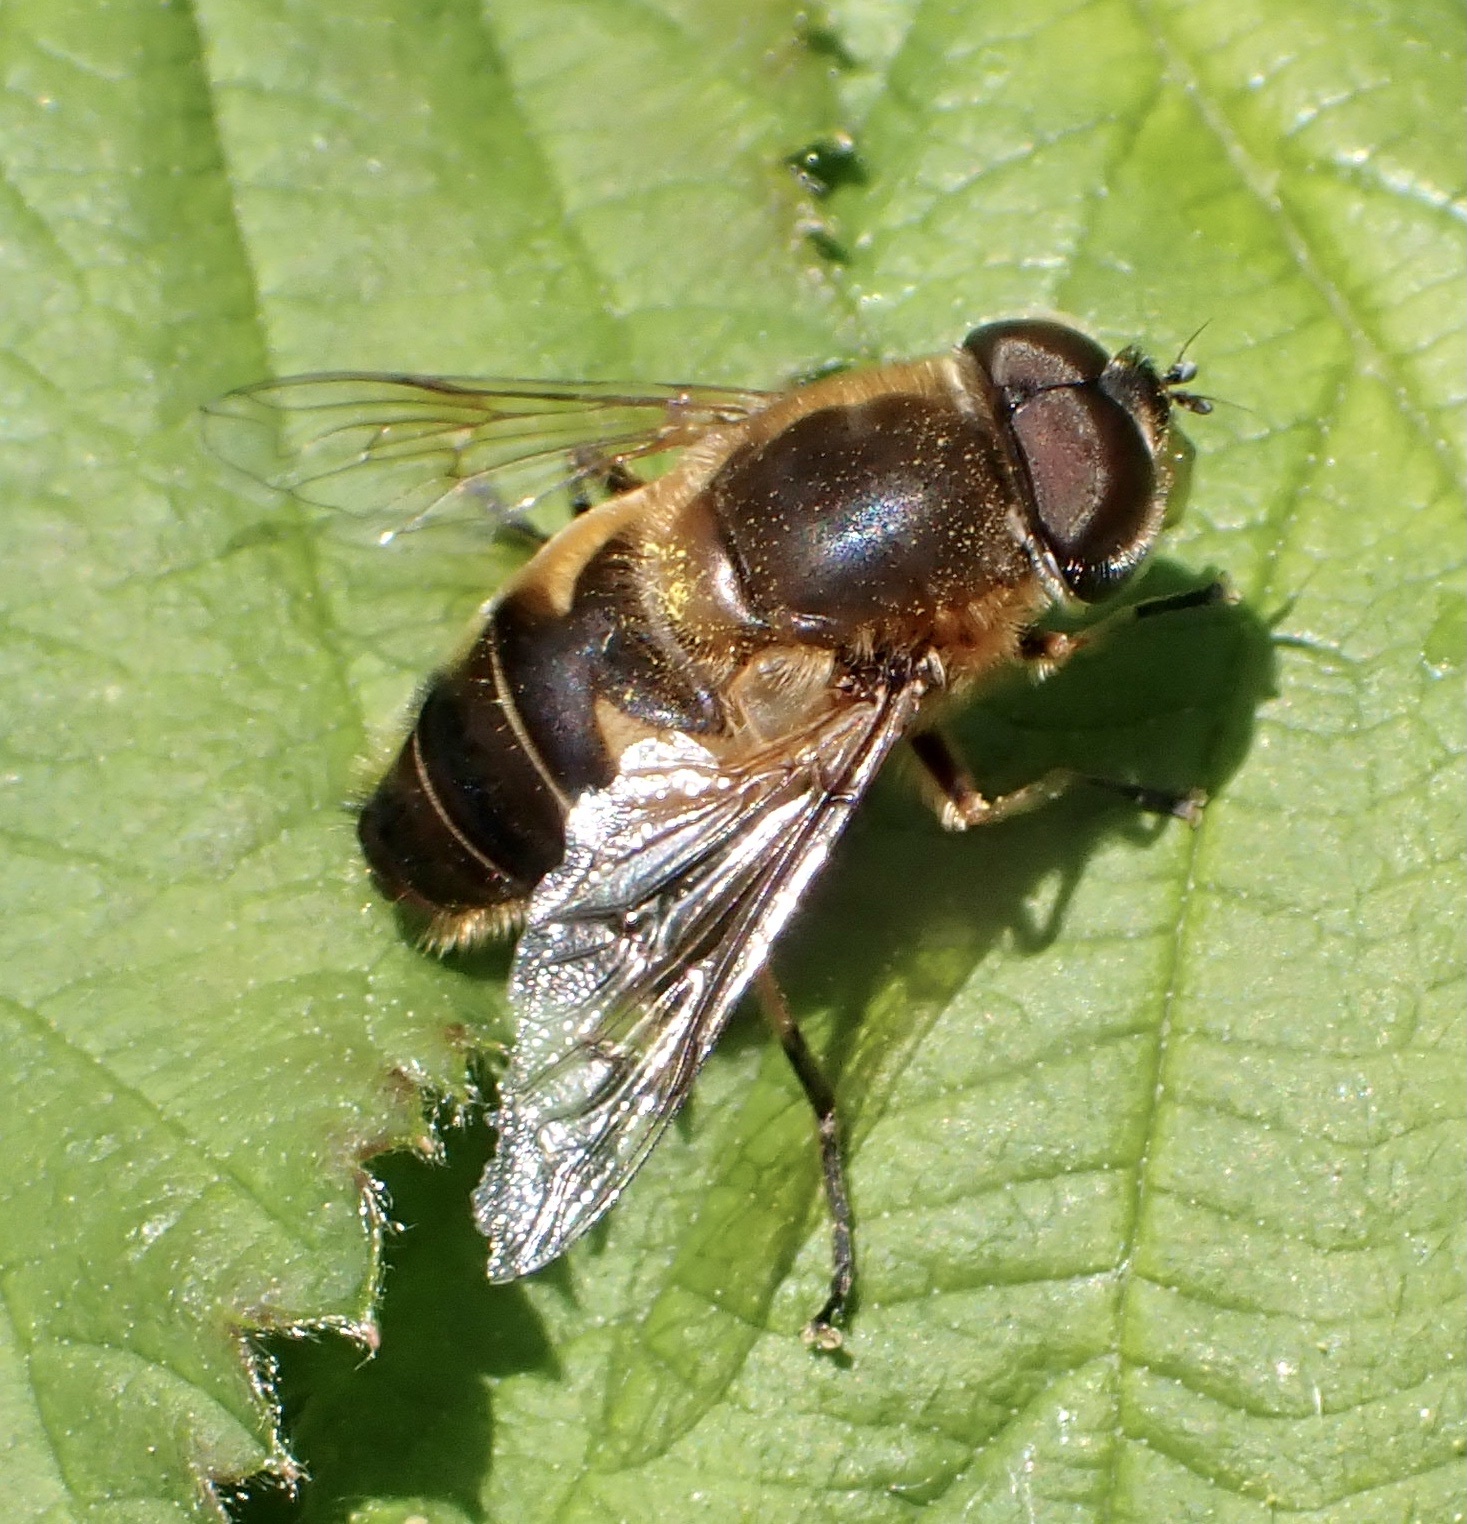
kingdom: Animalia
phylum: Arthropoda
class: Insecta
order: Diptera
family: Syrphidae
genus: Eristalis
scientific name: Eristalis pertinax
